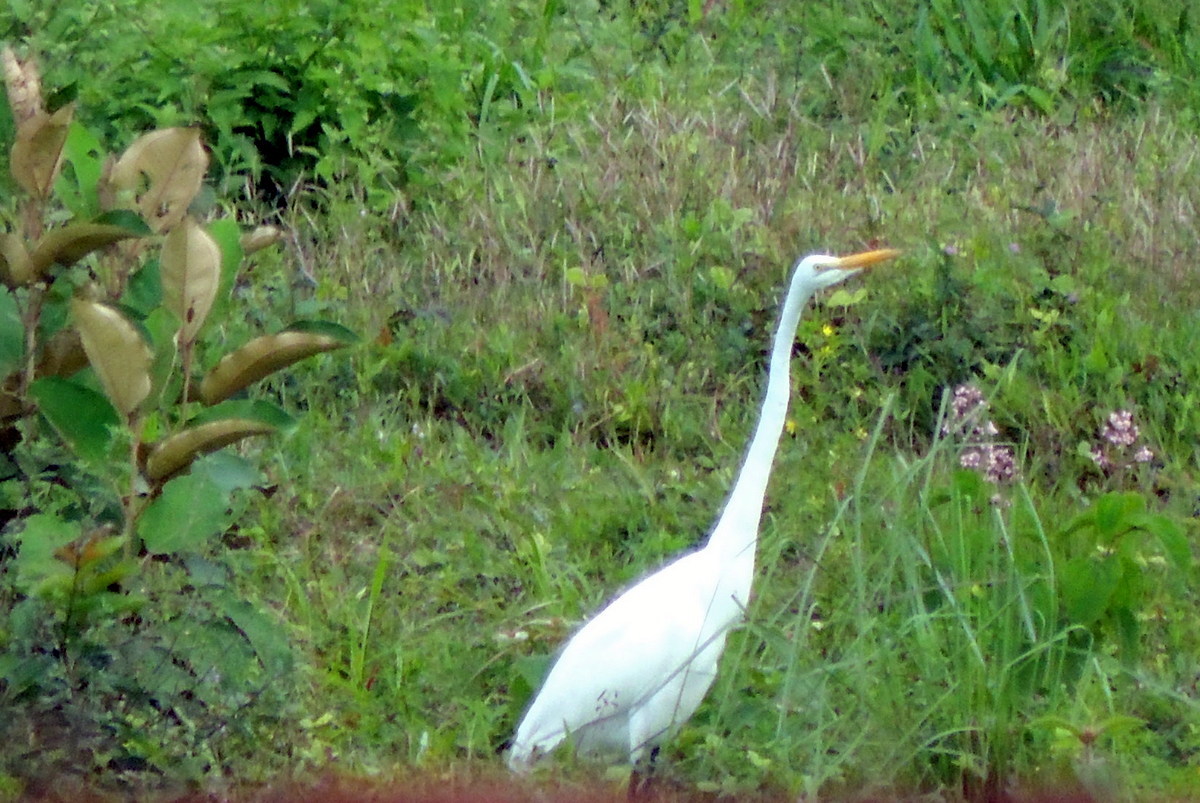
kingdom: Animalia
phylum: Chordata
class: Aves
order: Pelecaniformes
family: Ardeidae
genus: Ardea
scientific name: Ardea alba
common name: Great egret
